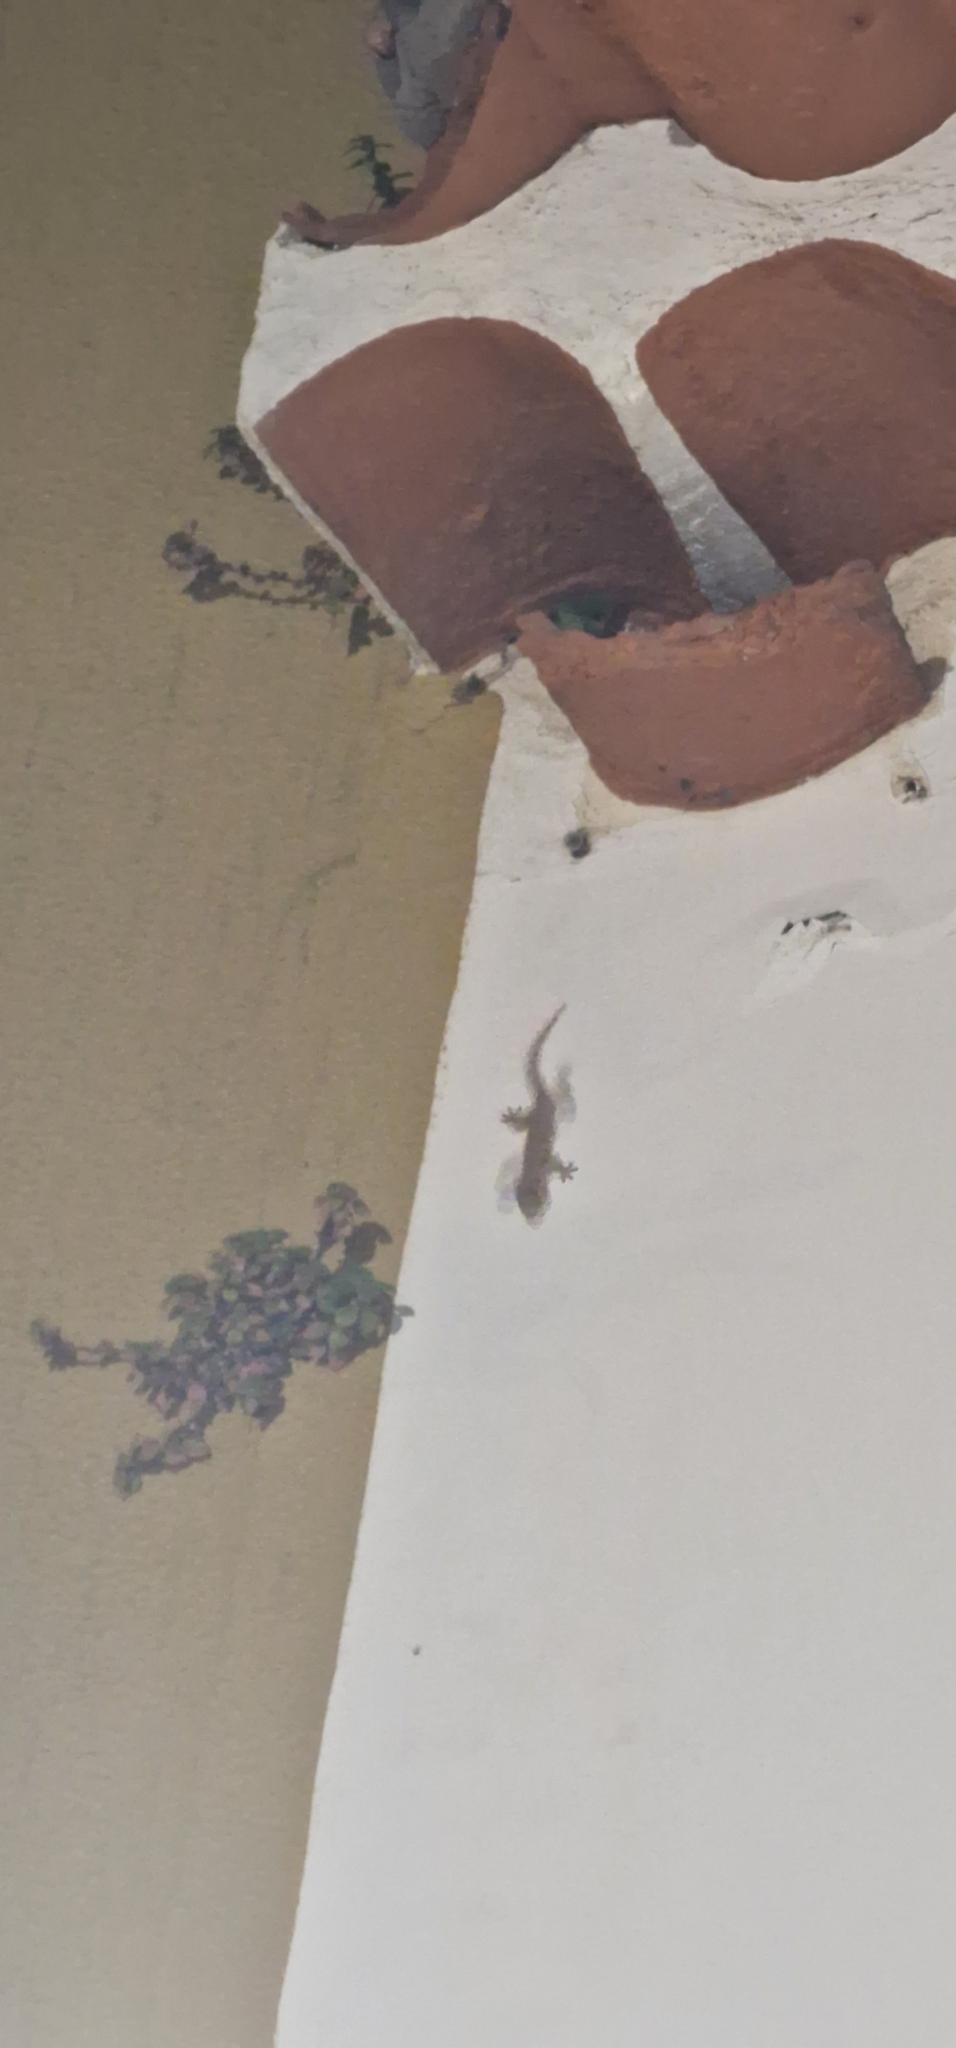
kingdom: Animalia
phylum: Chordata
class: Squamata
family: Phyllodactylidae
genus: Tarentola
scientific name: Tarentola mauritanica
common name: Moorish gecko
